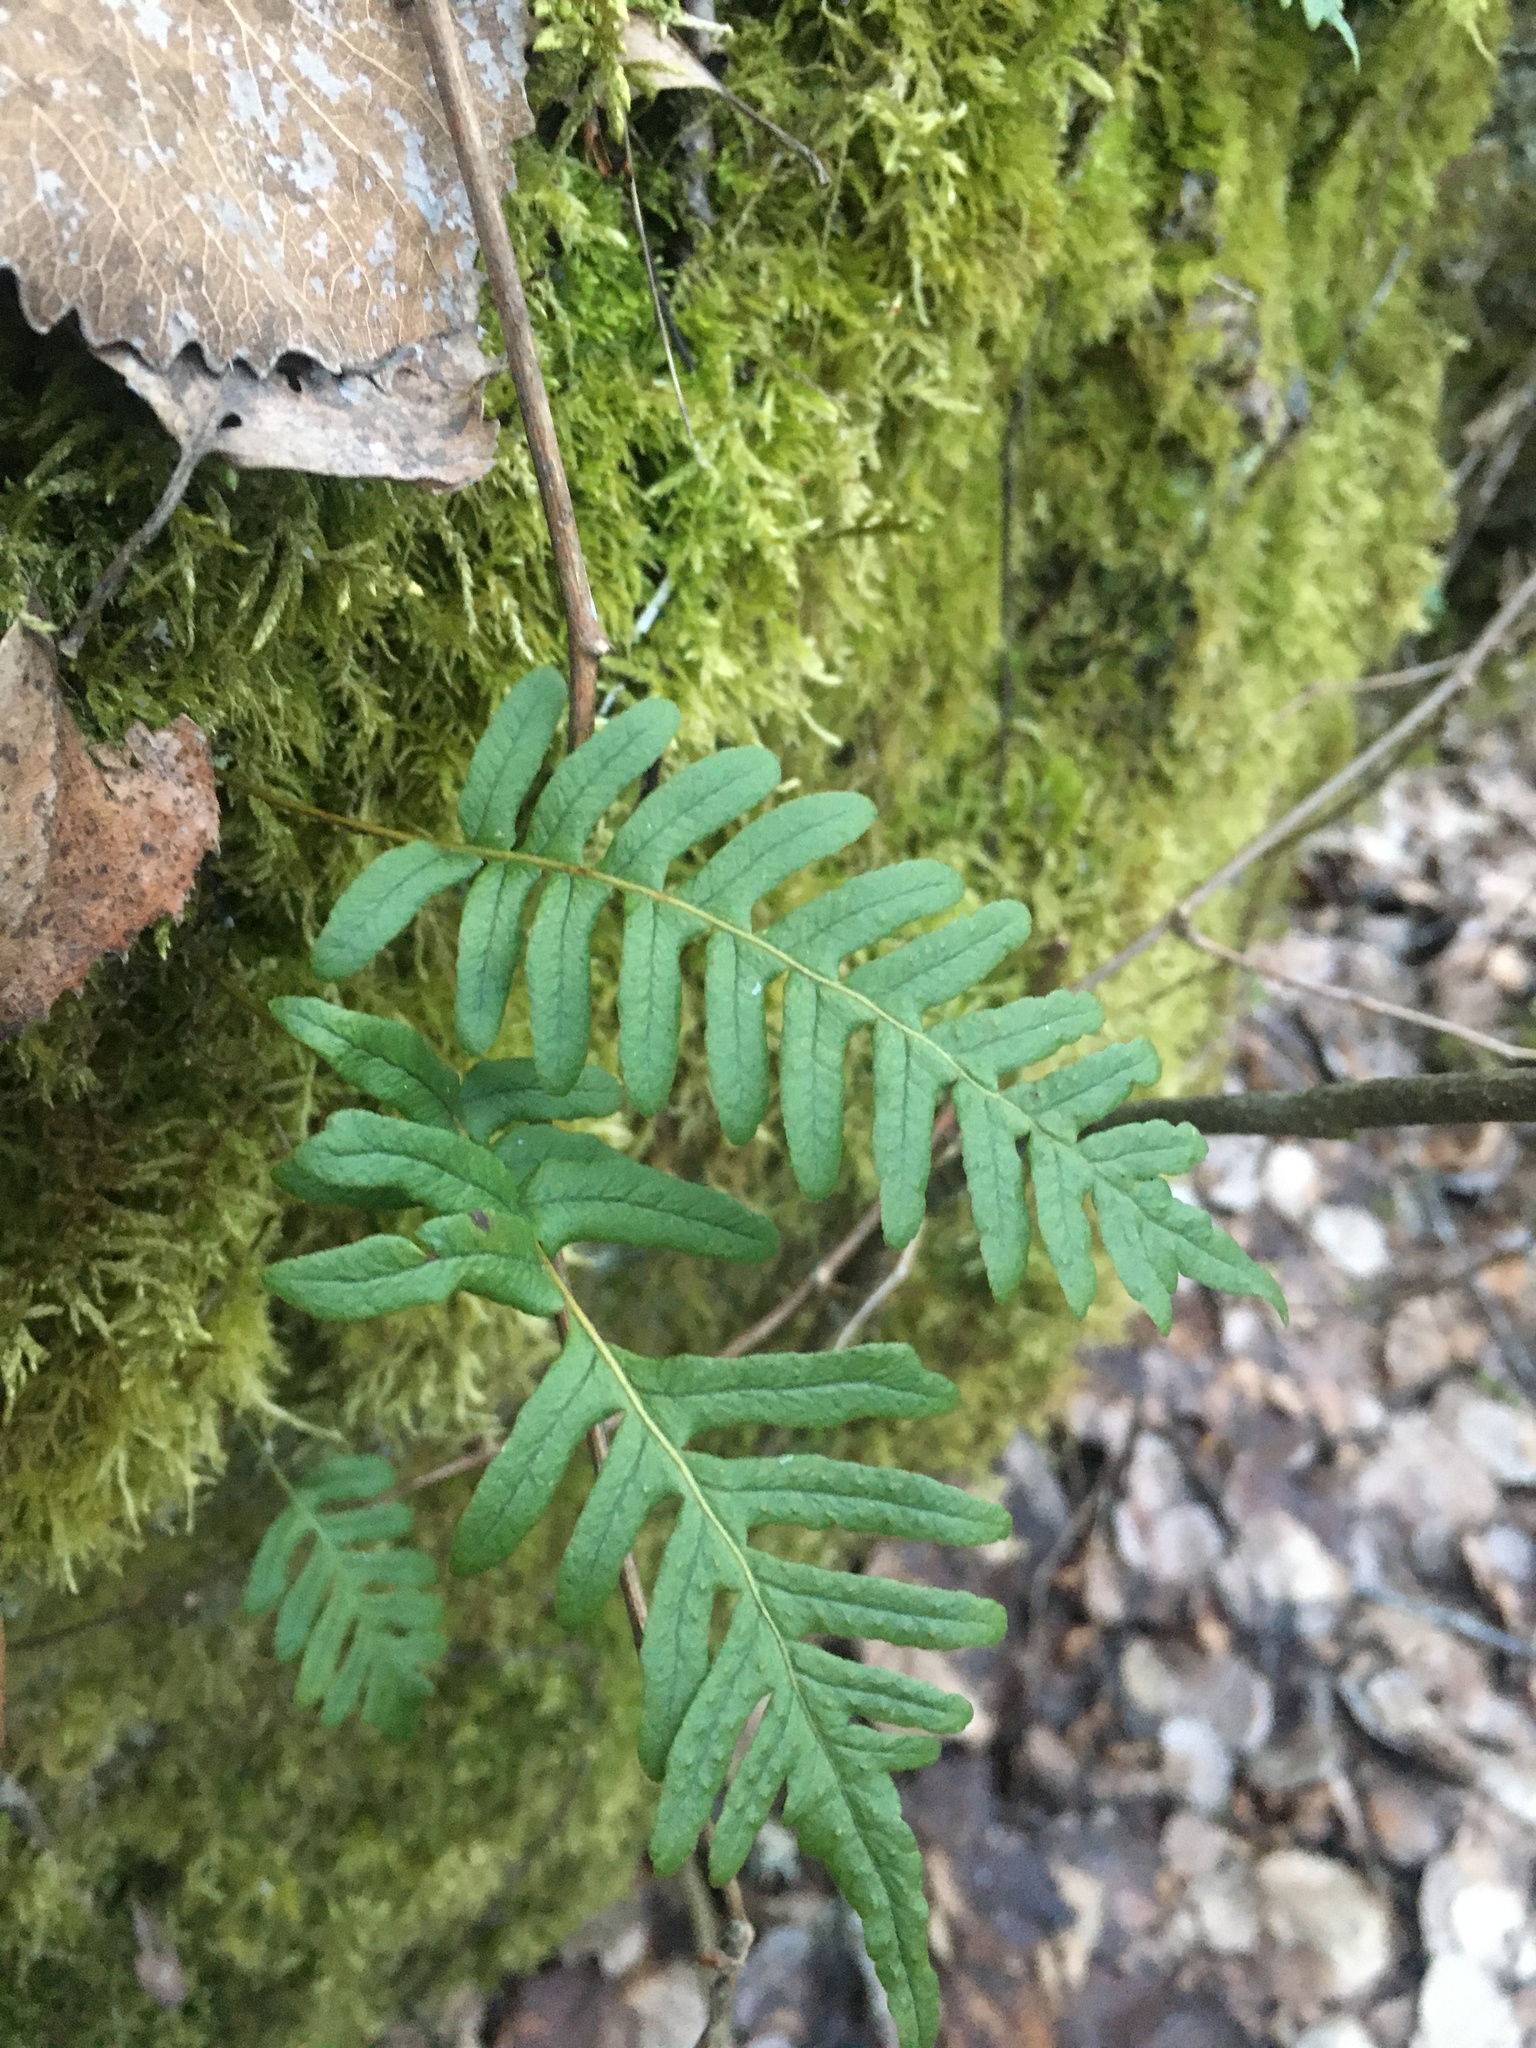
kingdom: Plantae
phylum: Tracheophyta
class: Polypodiopsida
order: Polypodiales
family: Polypodiaceae
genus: Polypodium
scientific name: Polypodium vulgare
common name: Common polypody
